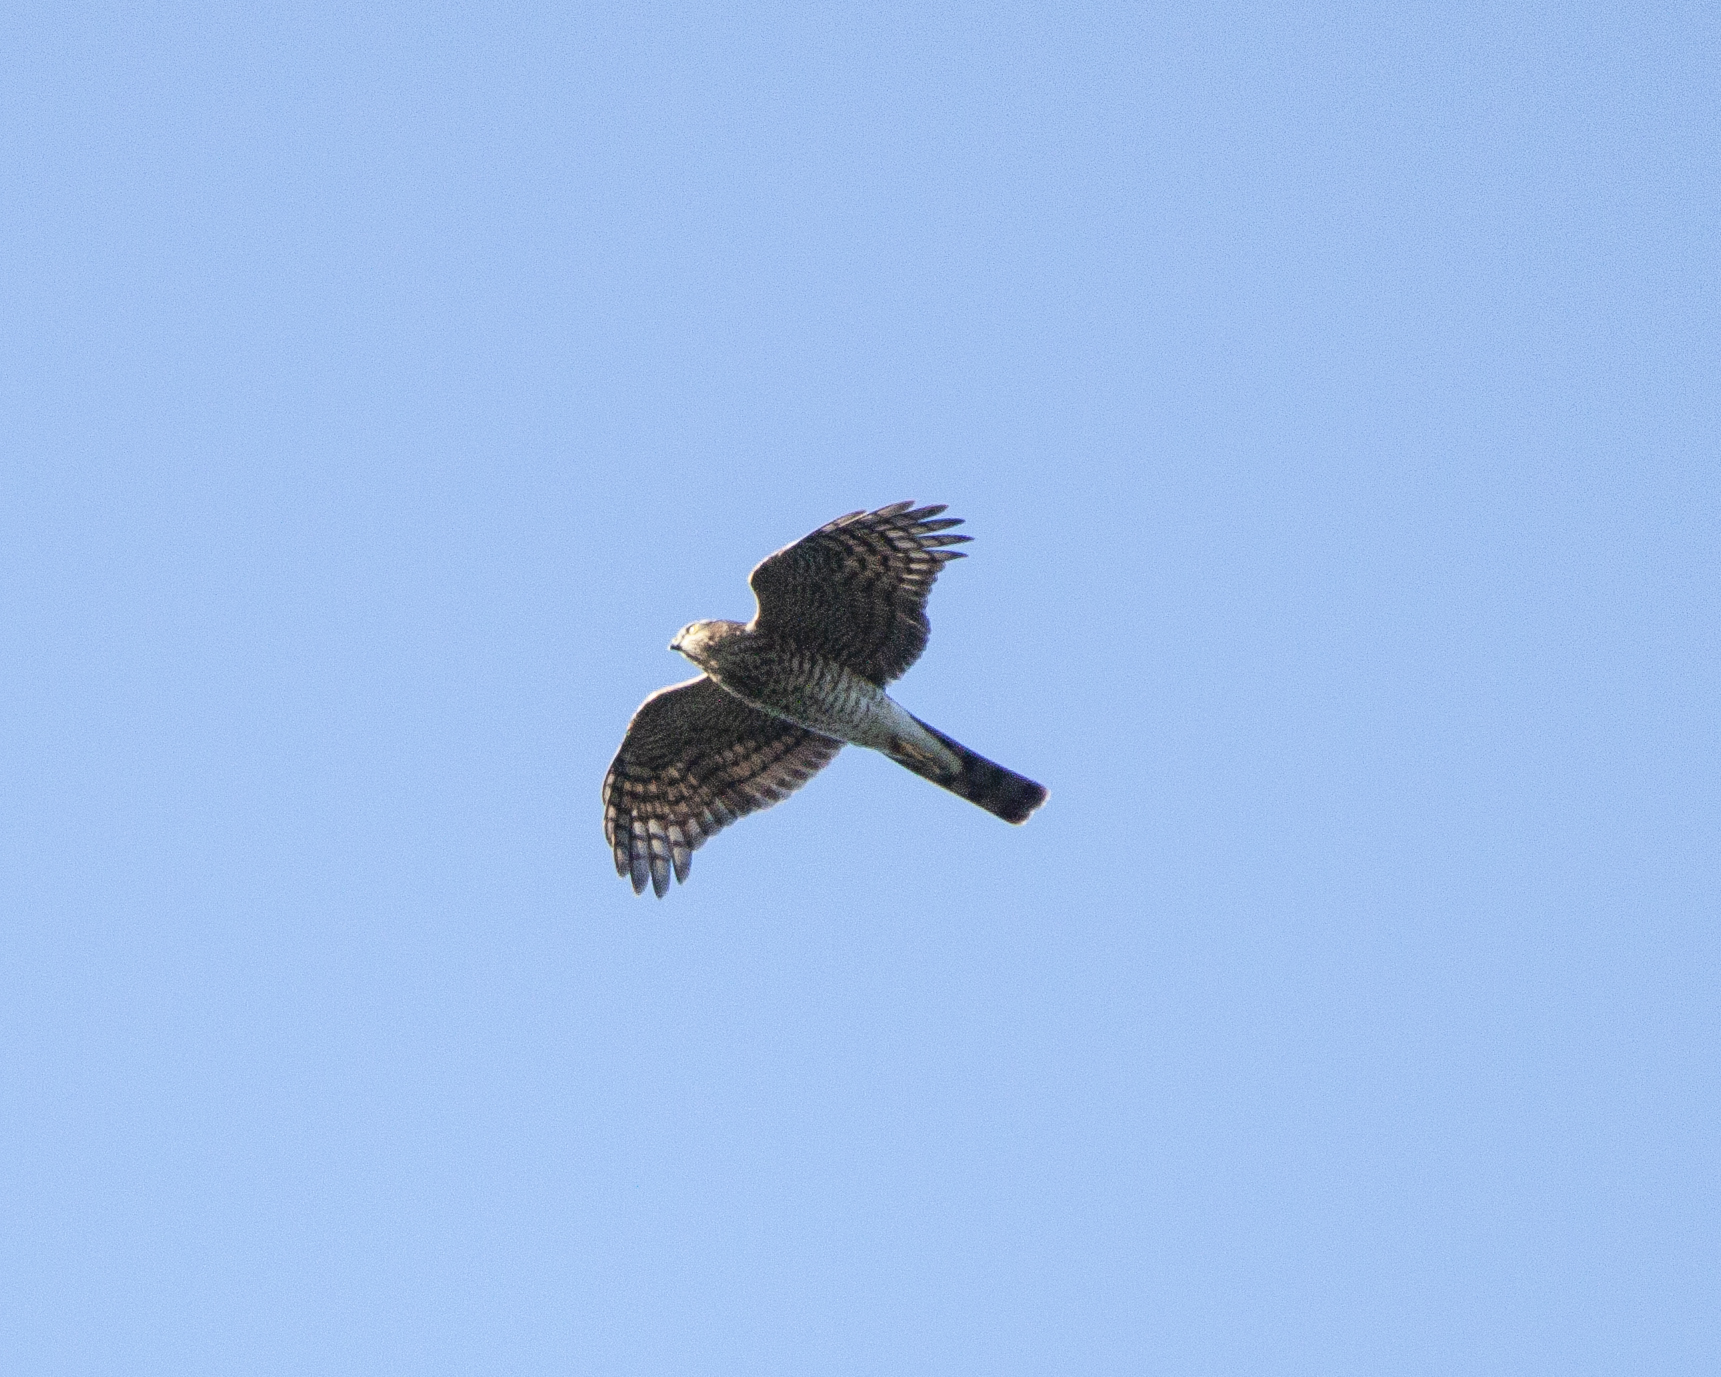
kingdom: Animalia
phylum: Chordata
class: Aves
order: Accipitriformes
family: Accipitridae
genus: Accipiter
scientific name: Accipiter nisus
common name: Eurasian sparrowhawk
